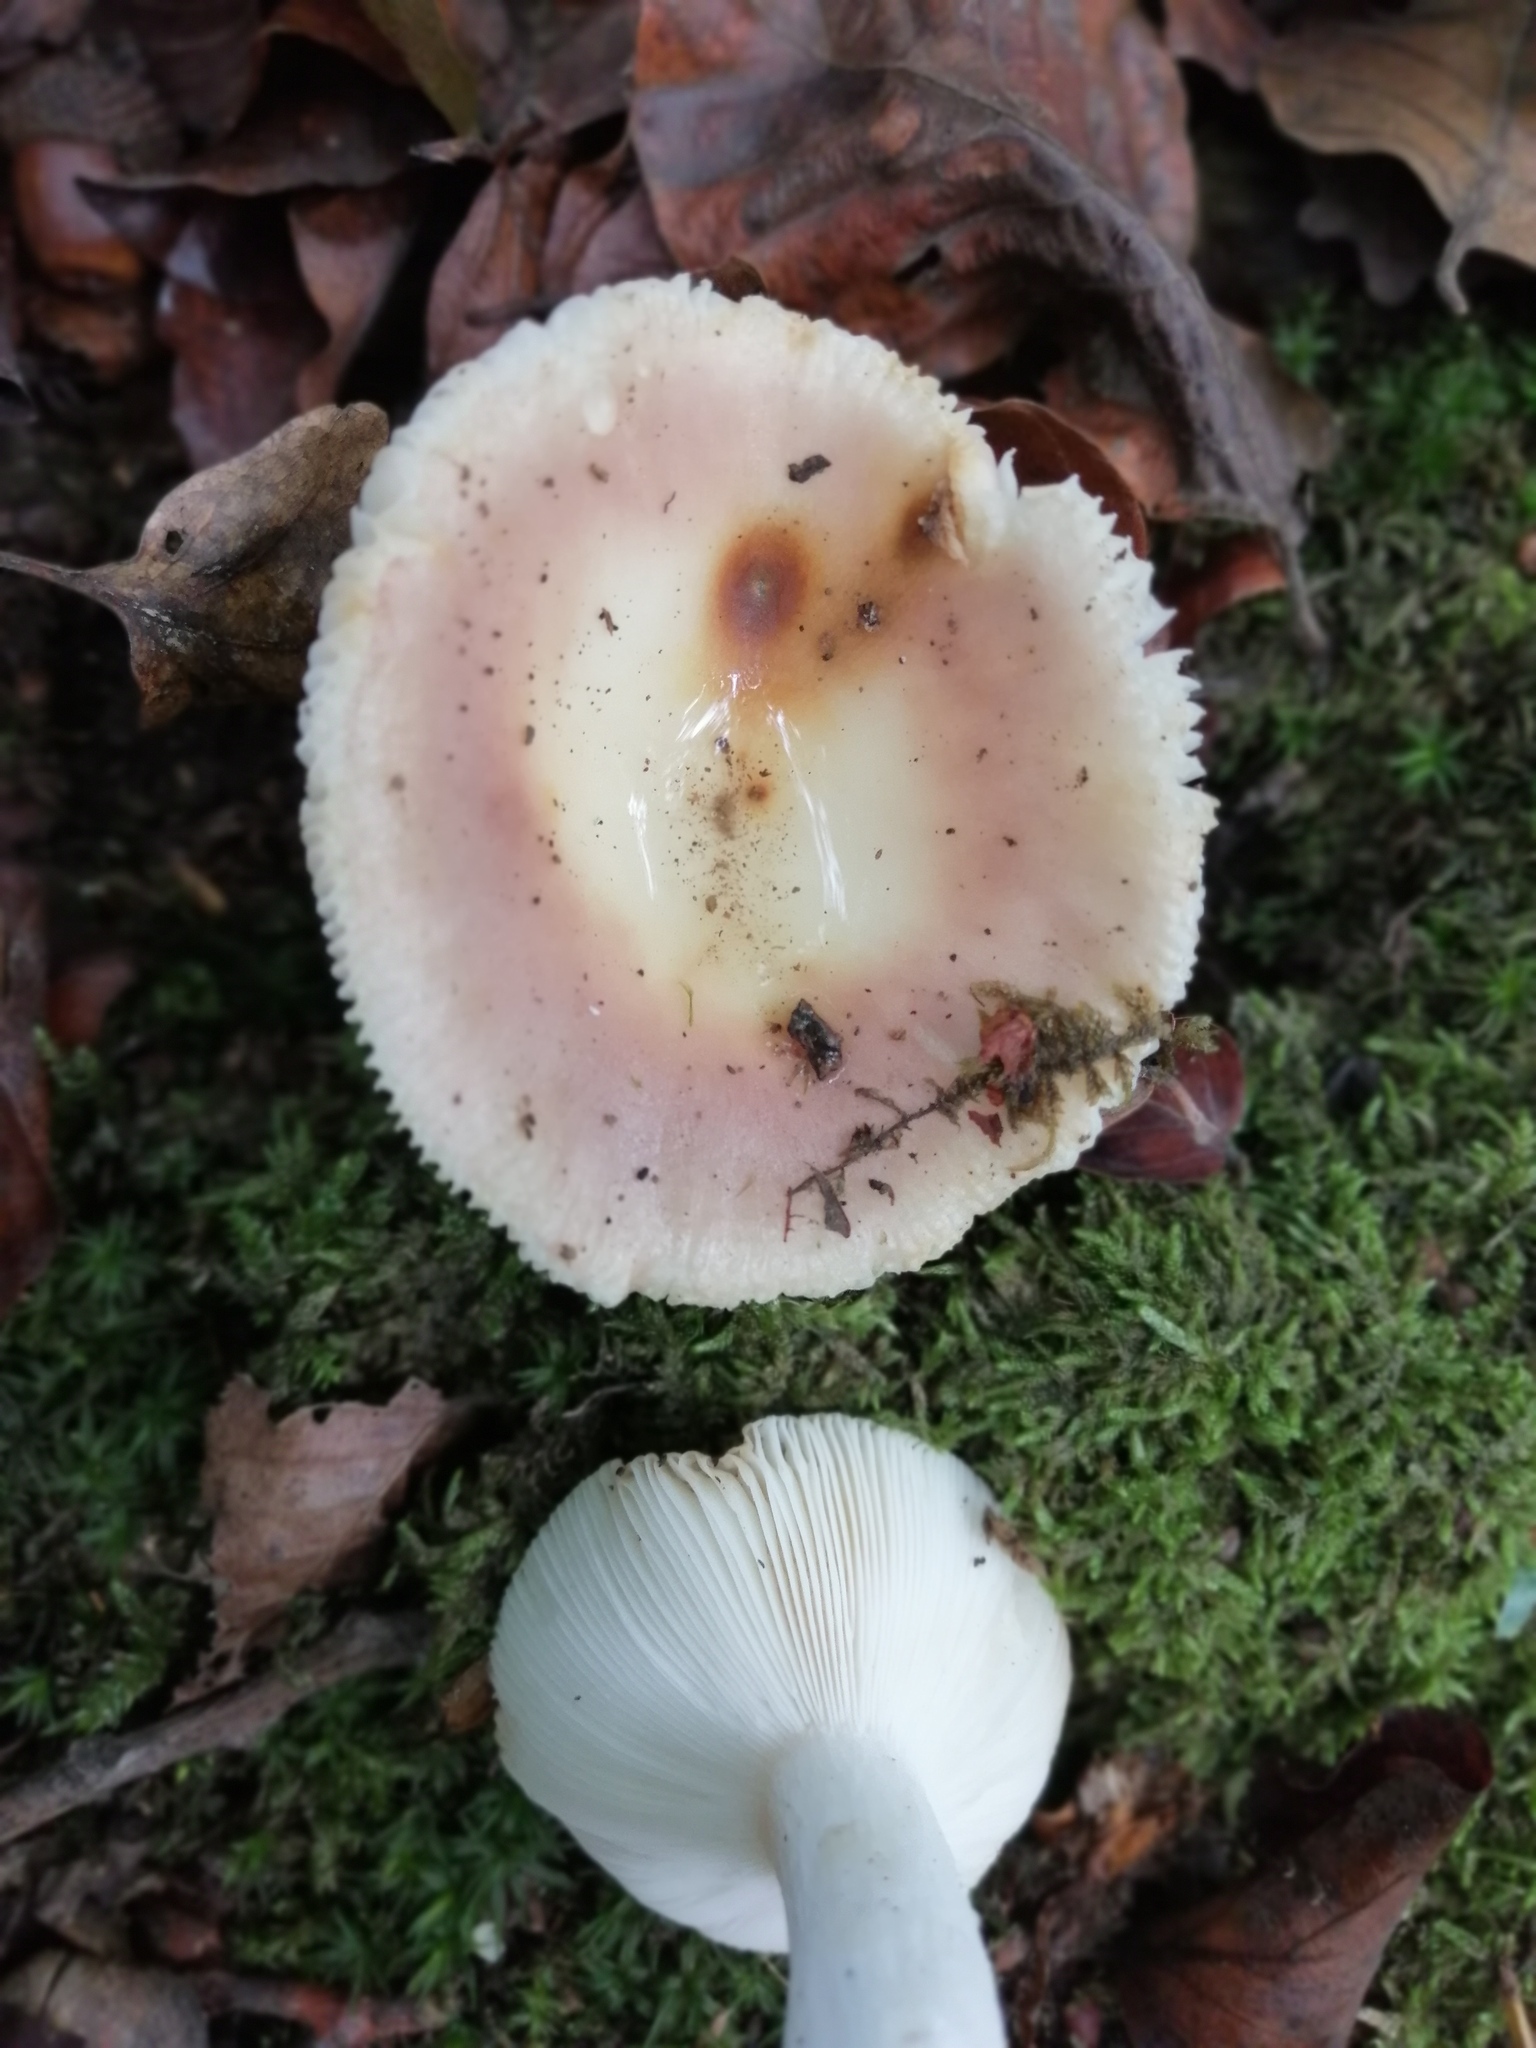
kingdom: Fungi
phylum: Basidiomycota
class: Agaricomycetes
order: Russulales
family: Russulaceae
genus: Russula
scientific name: Russula vesca
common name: Bare-toothed russula
